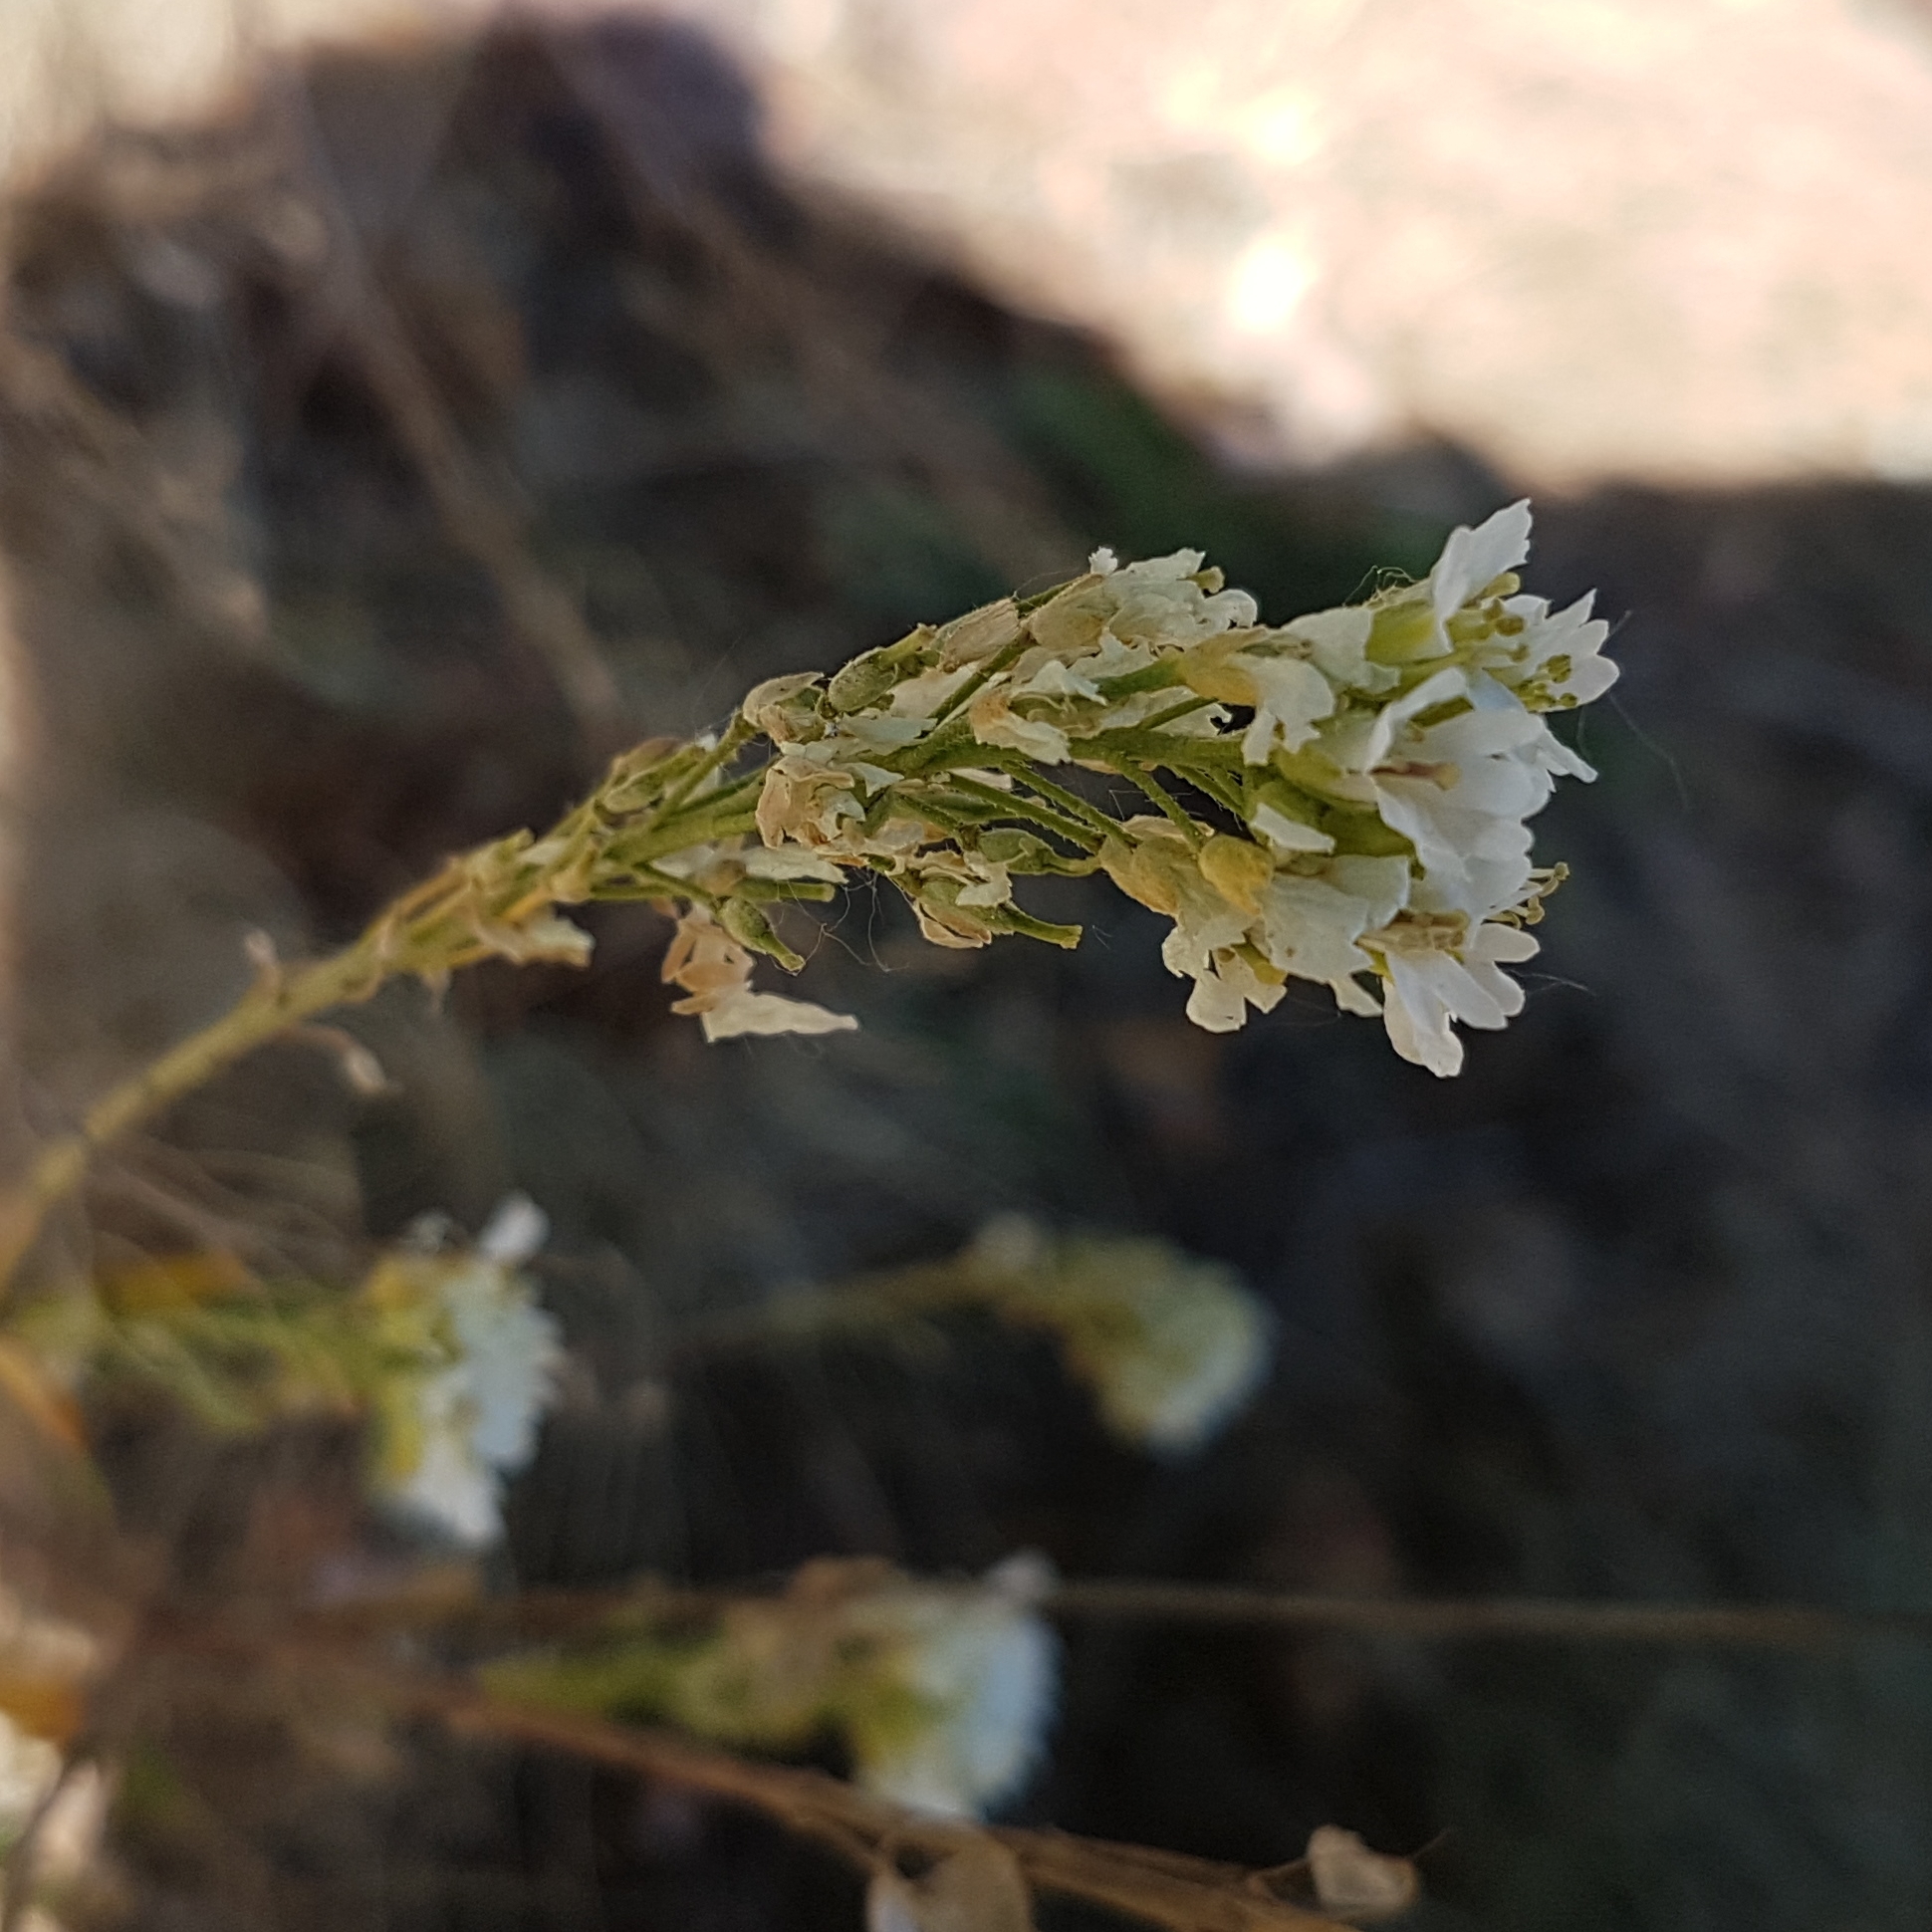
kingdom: Plantae
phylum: Tracheophyta
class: Magnoliopsida
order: Brassicales
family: Brassicaceae
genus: Berteroa
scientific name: Berteroa incana
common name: Hoary alison
